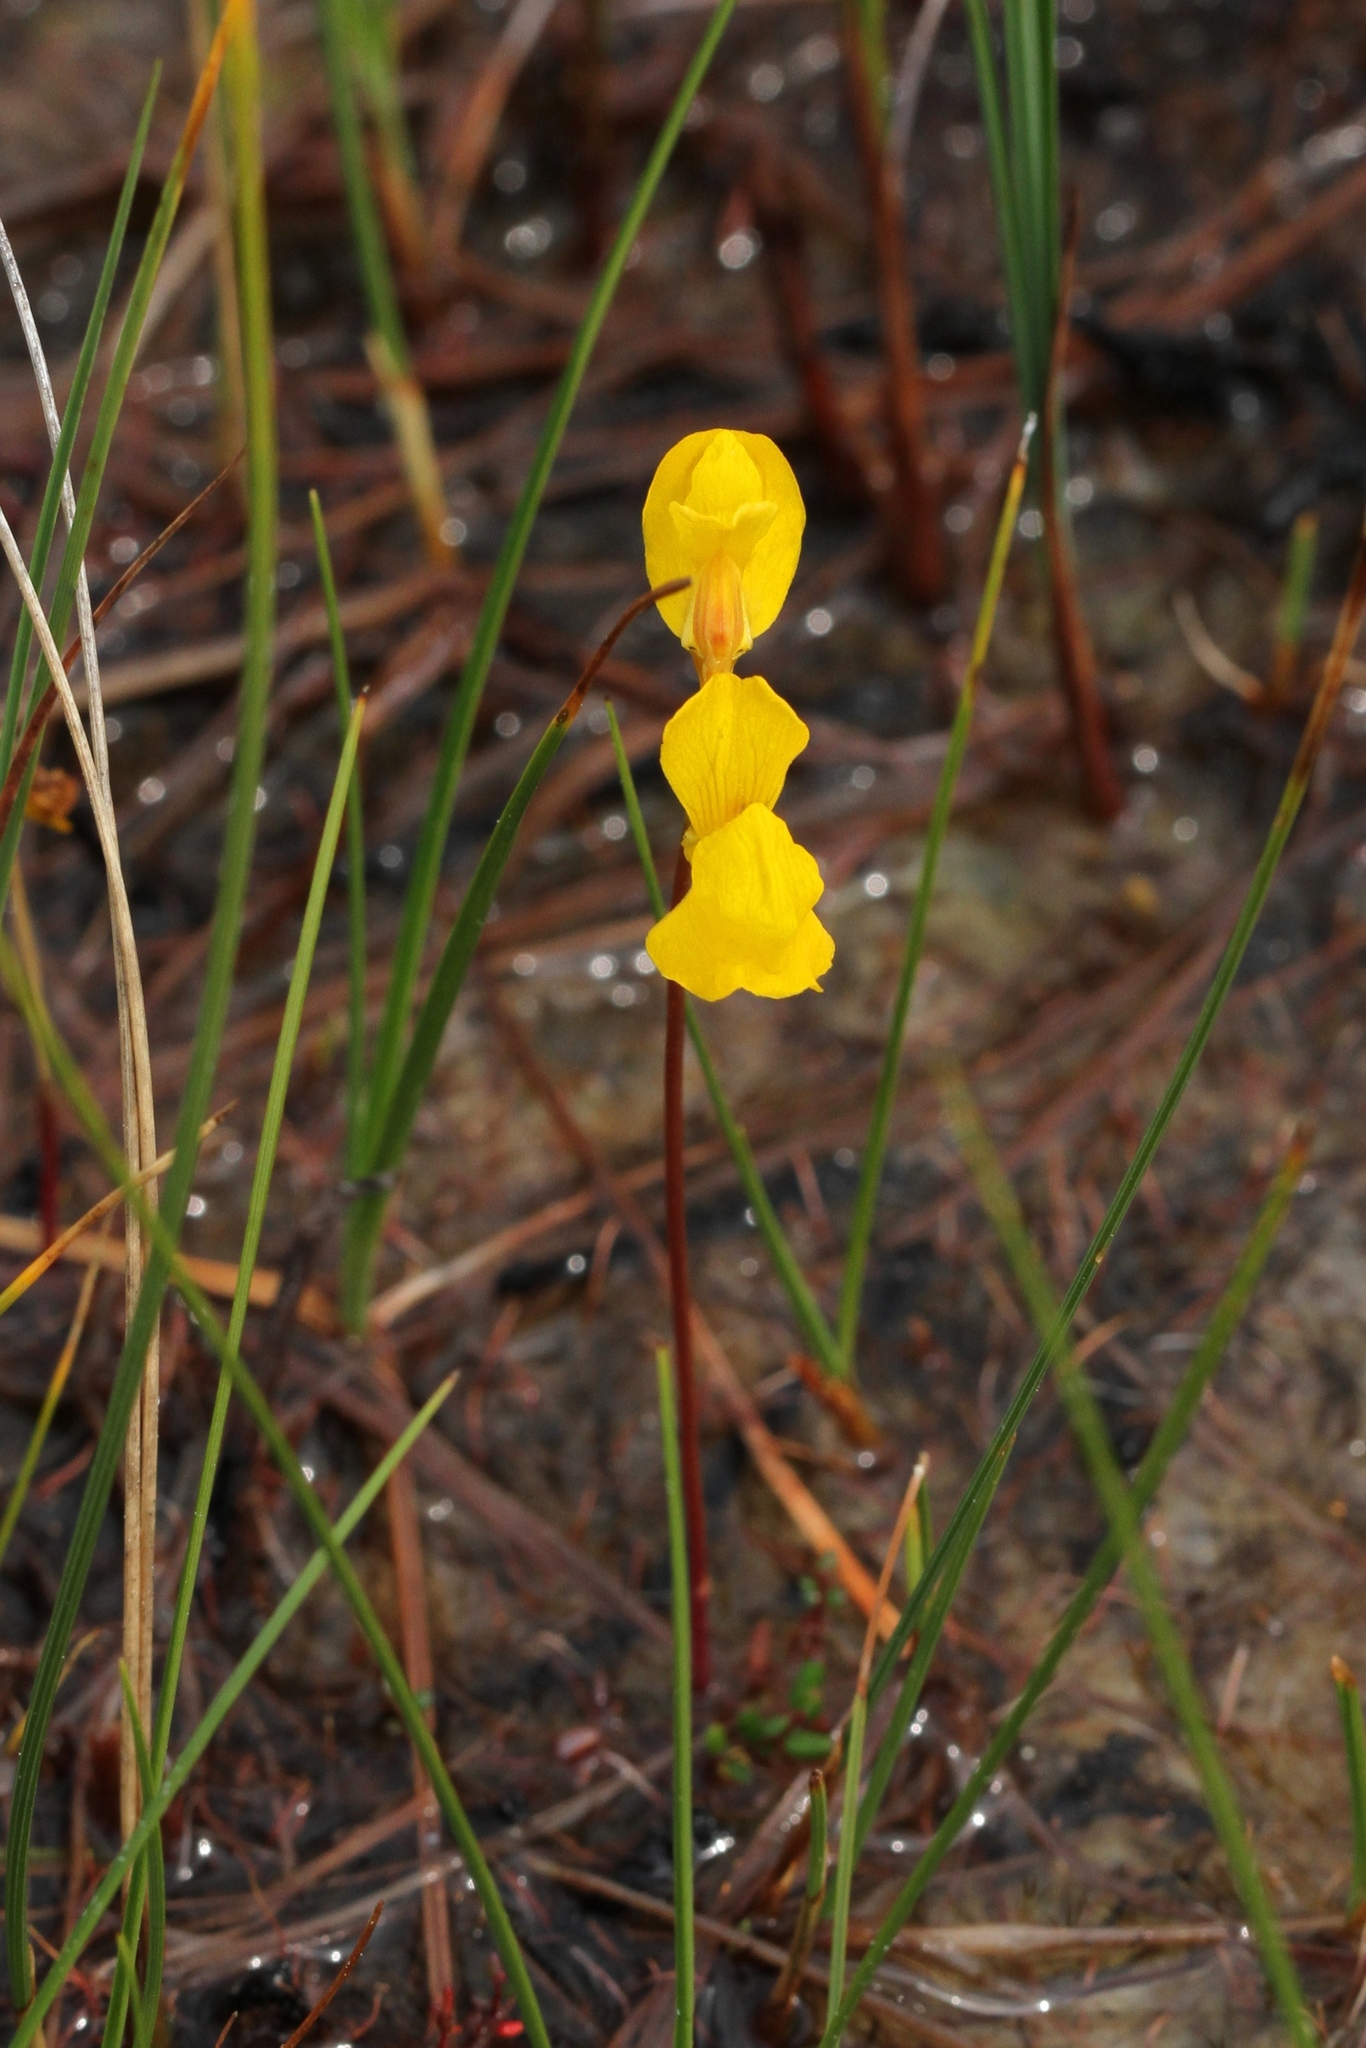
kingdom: Plantae
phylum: Tracheophyta
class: Magnoliopsida
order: Lamiales
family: Lentibulariaceae
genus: Utricularia
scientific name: Utricularia cornuta
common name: Horned bladderwort
